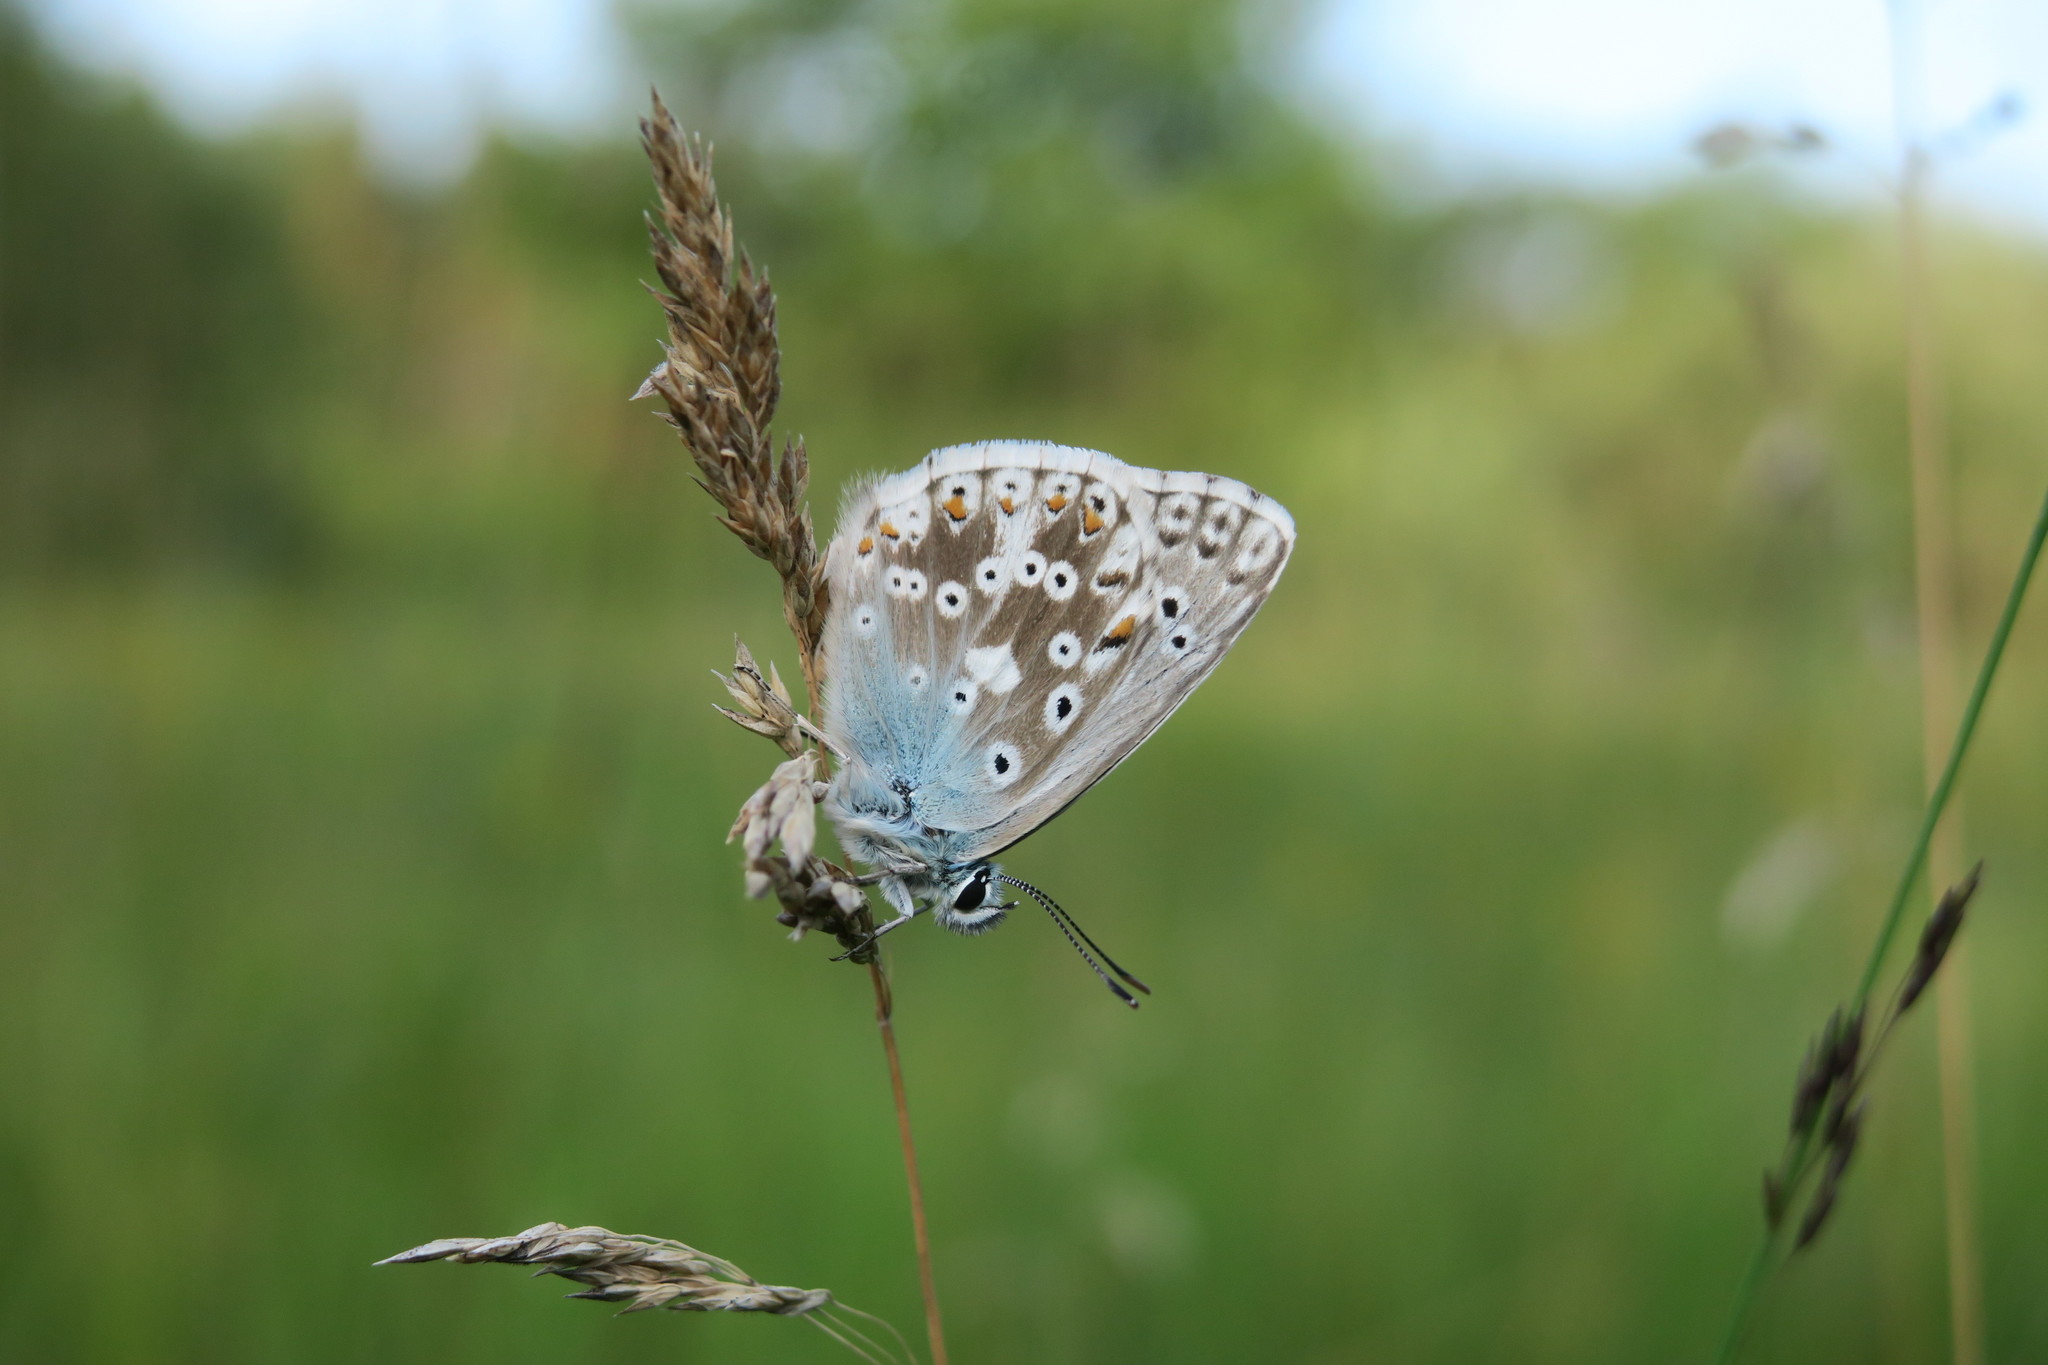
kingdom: Animalia
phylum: Arthropoda
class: Insecta
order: Lepidoptera
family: Lycaenidae
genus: Lysandra
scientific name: Lysandra coridon
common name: Chalkhill blue
